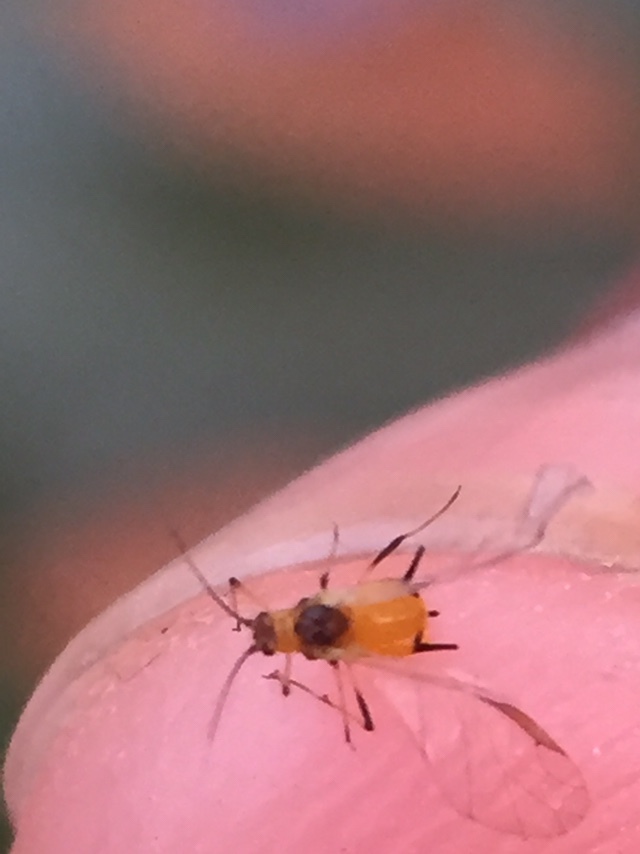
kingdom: Animalia
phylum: Arthropoda
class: Insecta
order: Hemiptera
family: Aphididae
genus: Aphis
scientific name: Aphis nerii
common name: Oleander aphid
